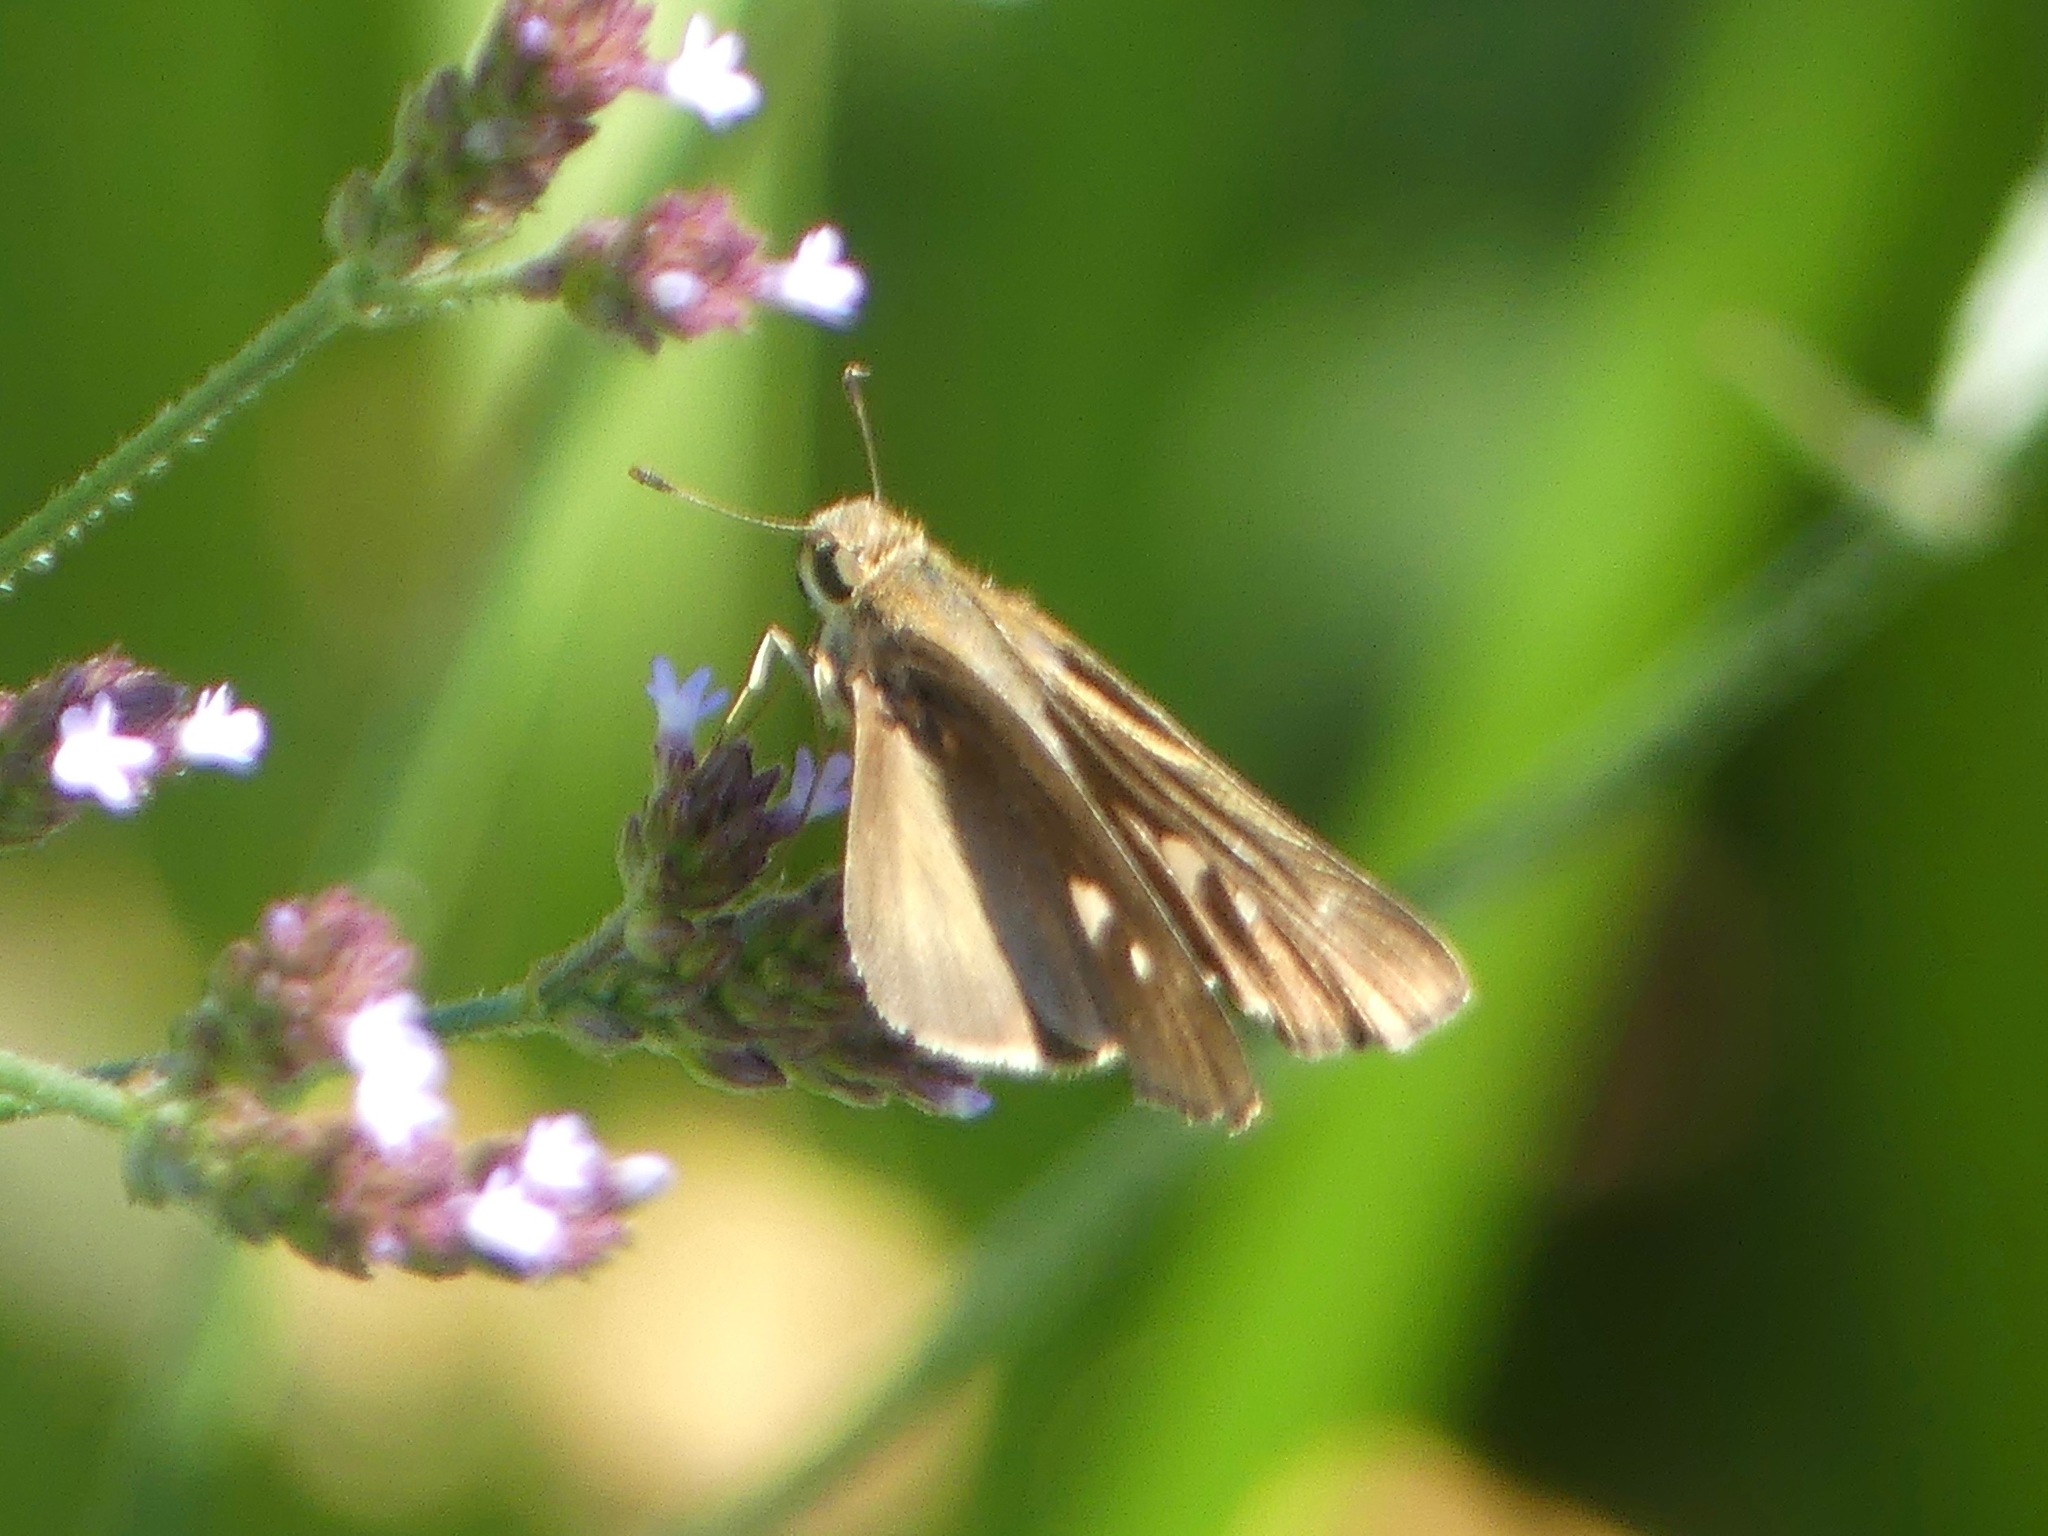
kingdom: Animalia
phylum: Arthropoda
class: Insecta
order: Lepidoptera
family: Hesperiidae
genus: Panoquina
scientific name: Panoquina ocola
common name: Ocola skipper
